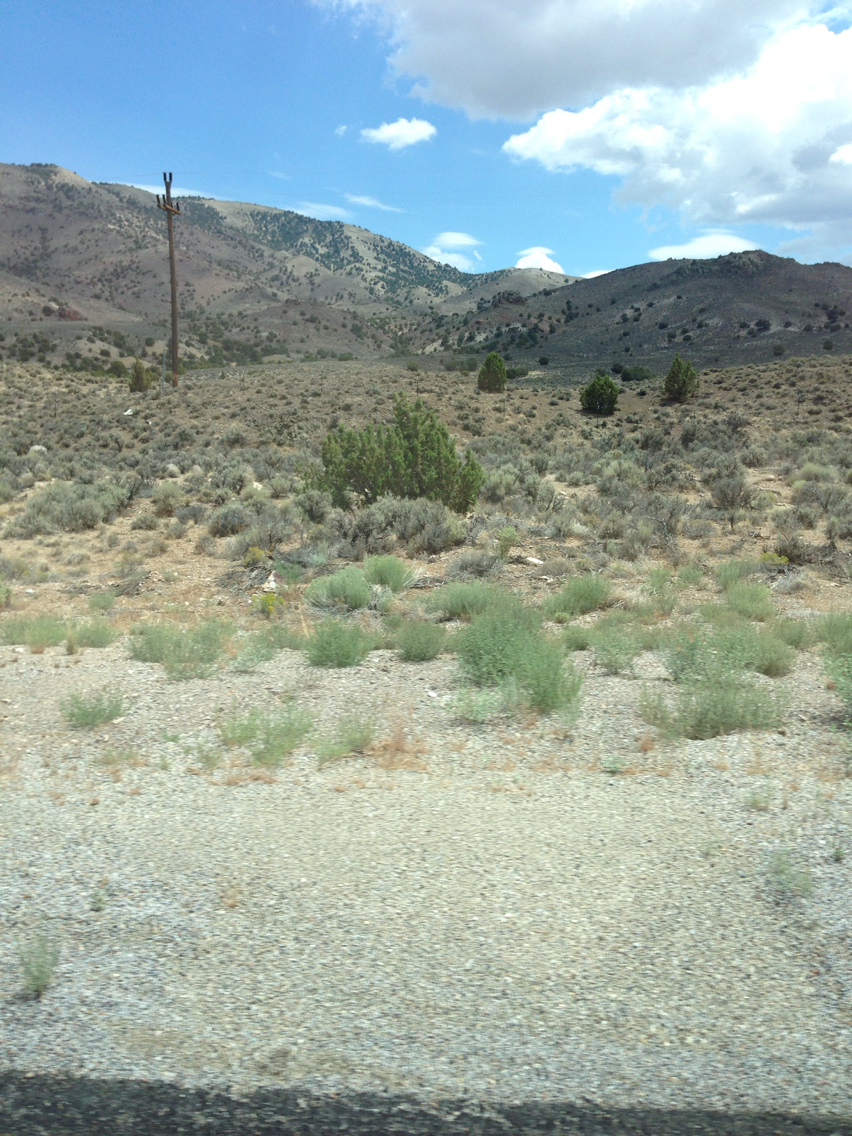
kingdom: Plantae
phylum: Tracheophyta
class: Magnoliopsida
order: Asterales
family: Asteraceae
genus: Artemisia
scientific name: Artemisia tridentata
